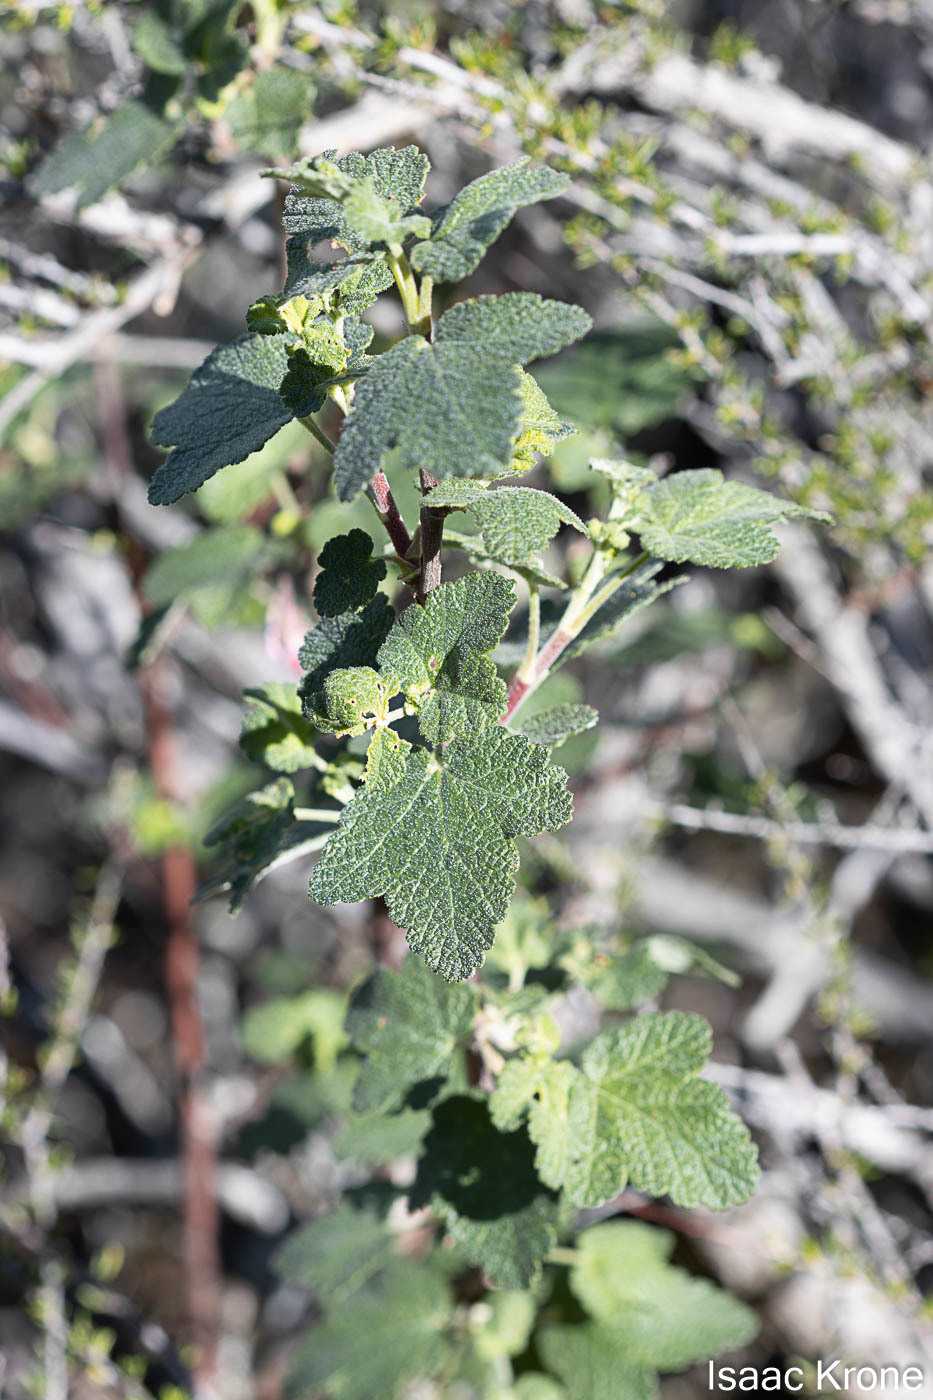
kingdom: Plantae
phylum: Tracheophyta
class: Magnoliopsida
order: Saxifragales
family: Grossulariaceae
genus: Ribes
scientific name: Ribes malvaceum
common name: Chaparral currant
